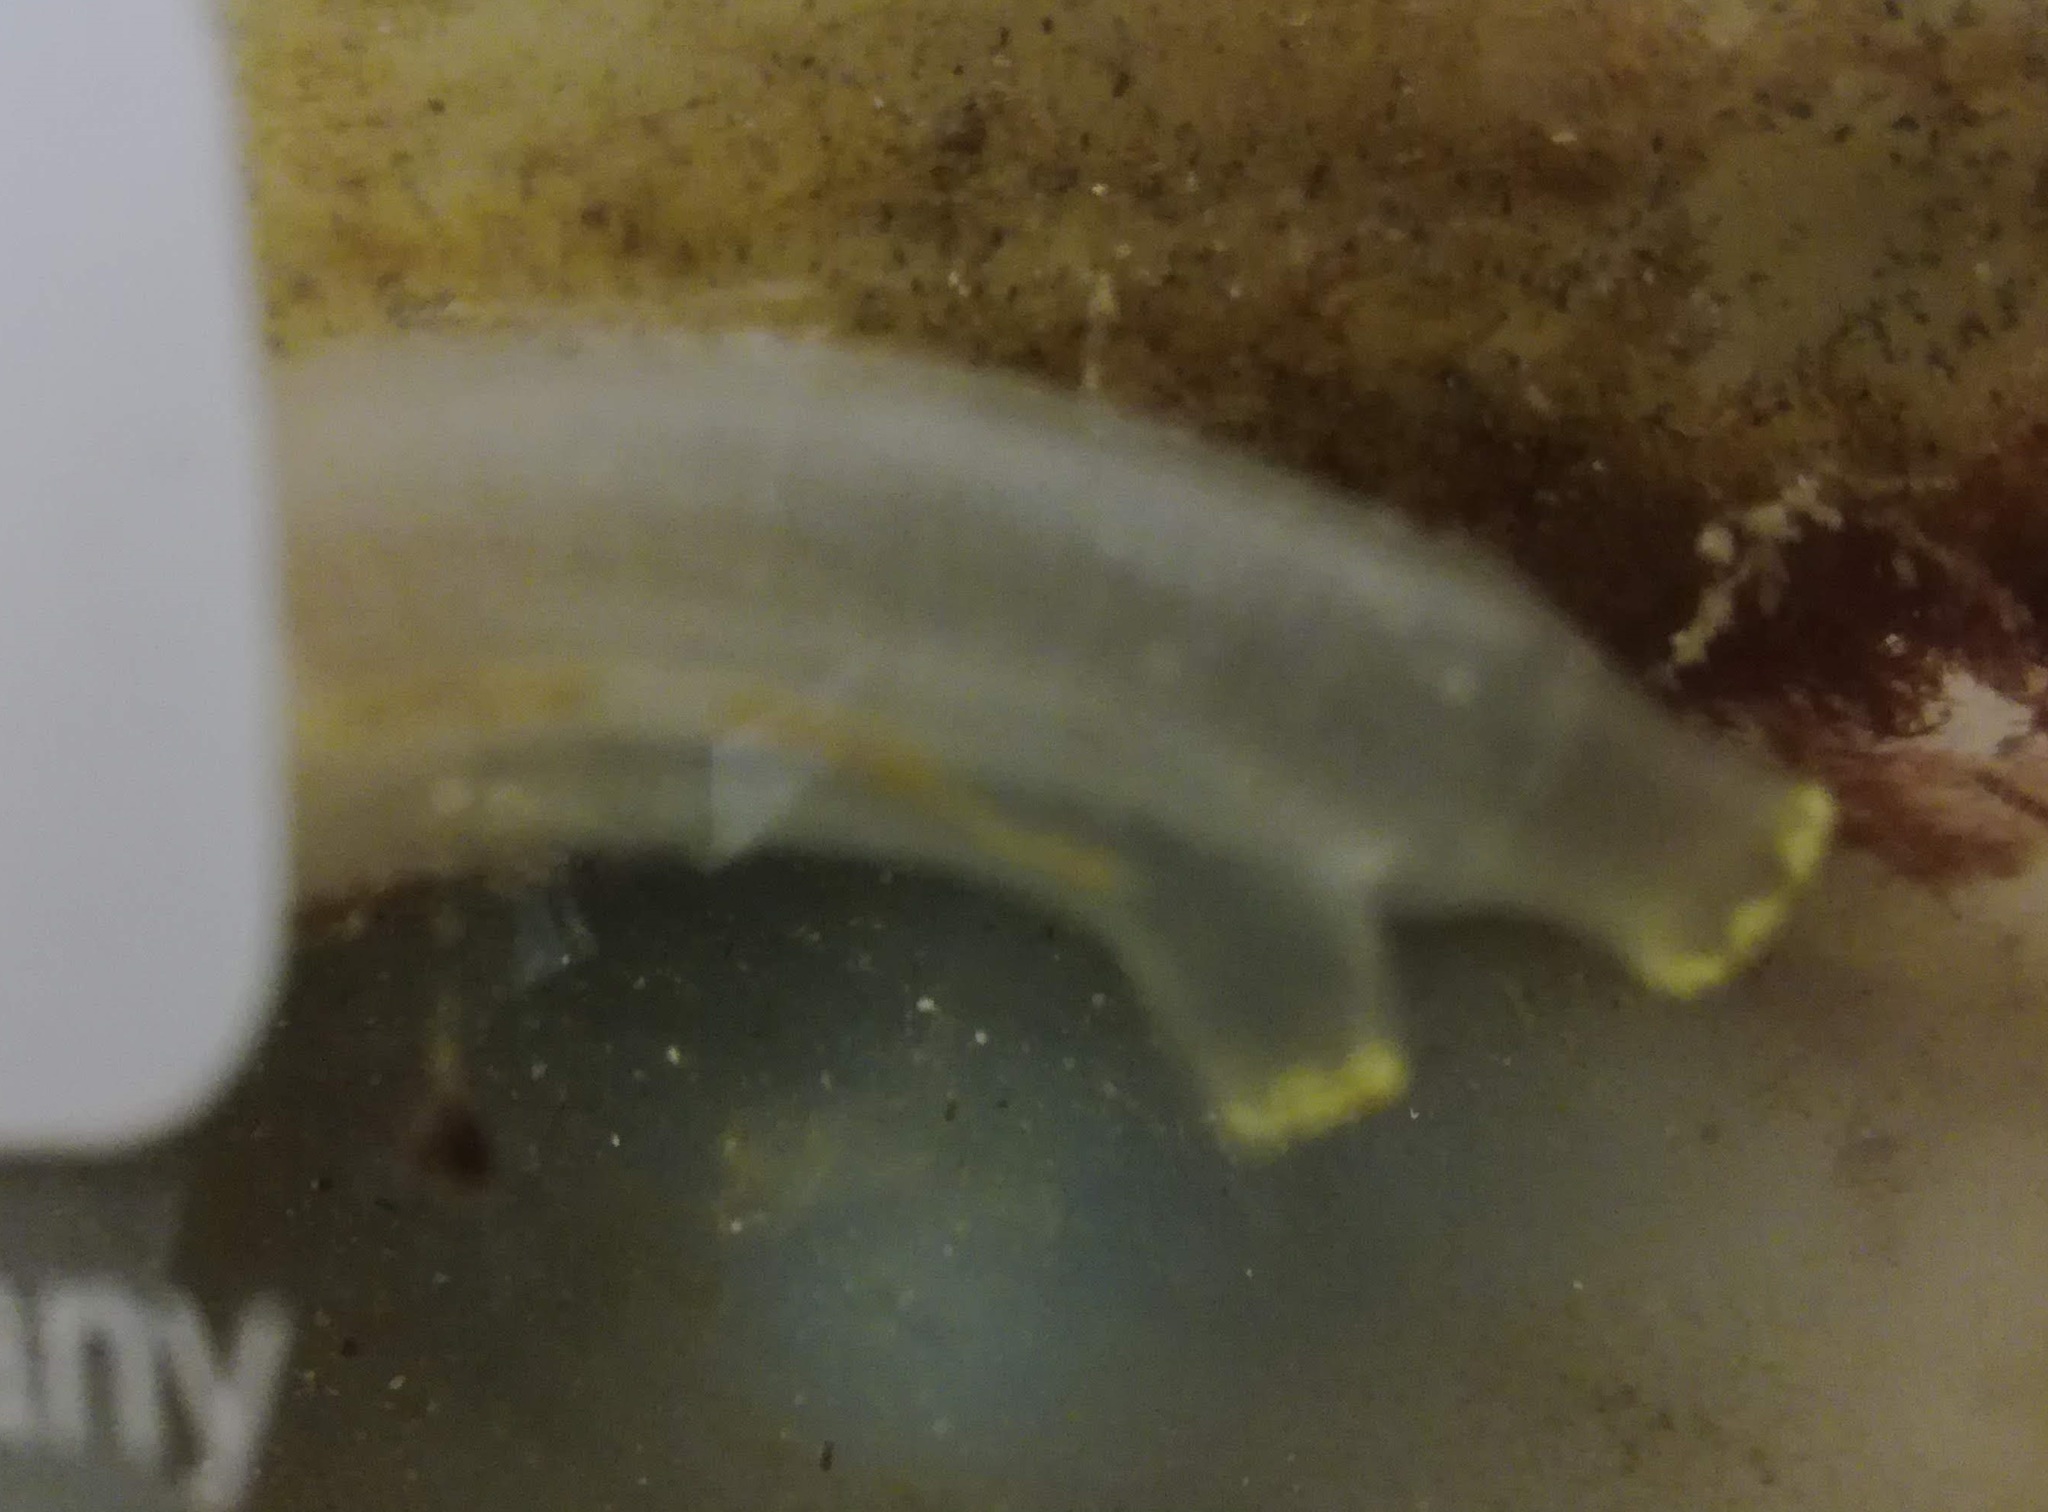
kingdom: Animalia
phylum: Chordata
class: Ascidiacea
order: Phlebobranchia
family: Cionidae
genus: Ciona
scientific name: Ciona intestinalis
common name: Vase tunicate
